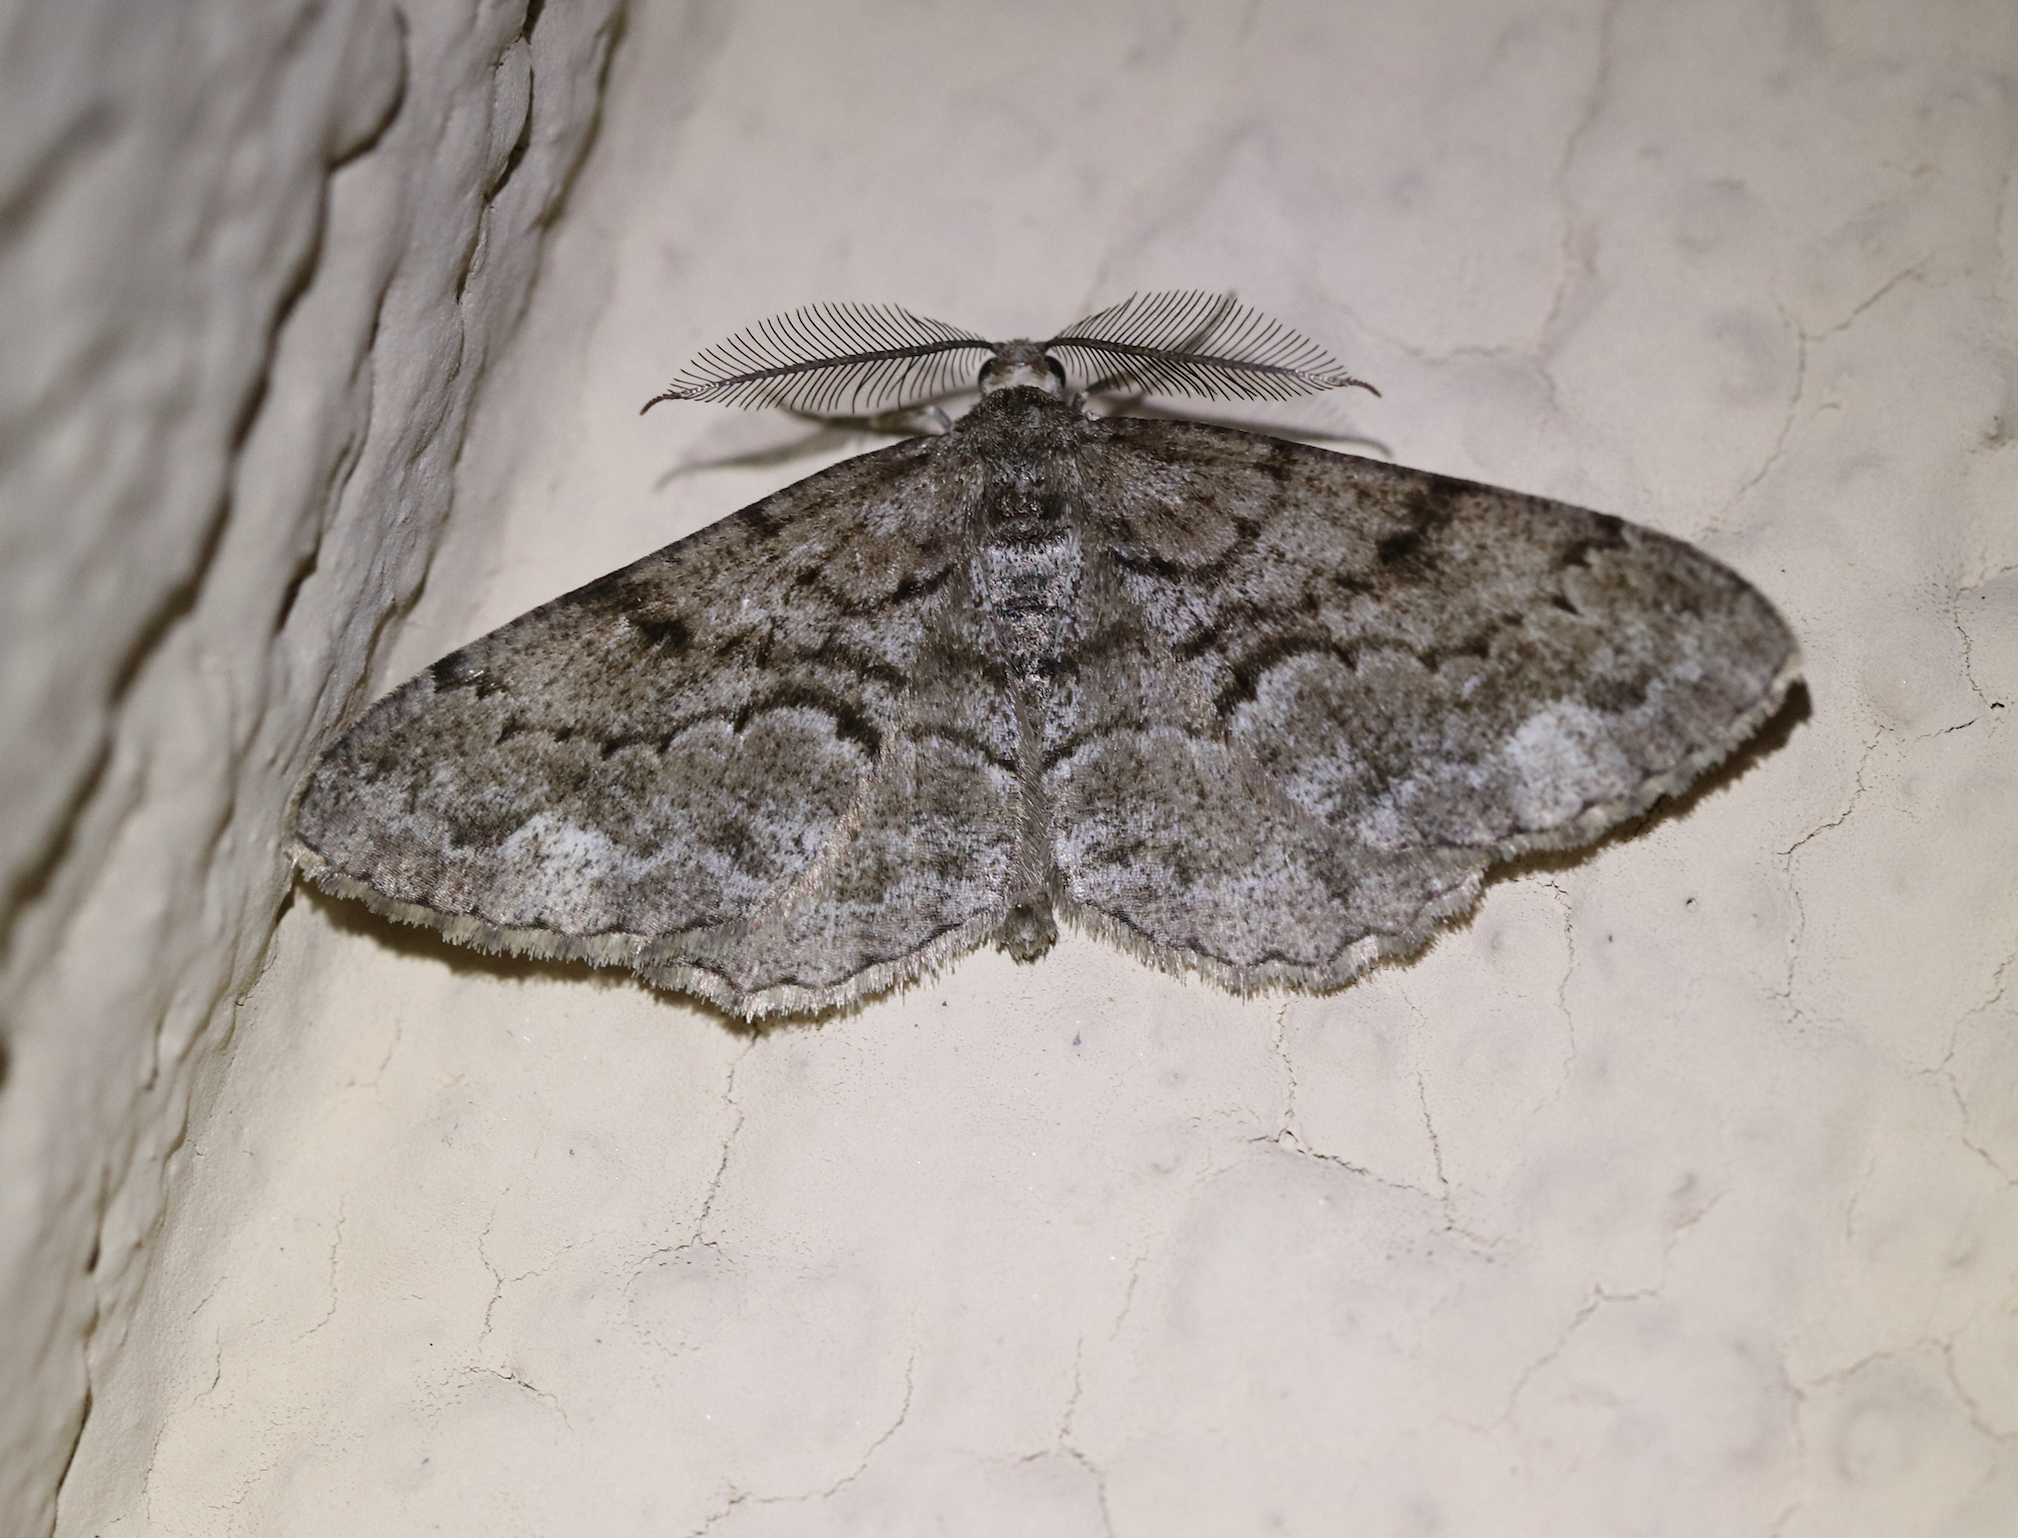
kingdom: Animalia
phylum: Arthropoda
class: Insecta
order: Lepidoptera
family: Geometridae
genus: Peribatodes
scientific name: Peribatodes secundaria
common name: Feathered beauty
